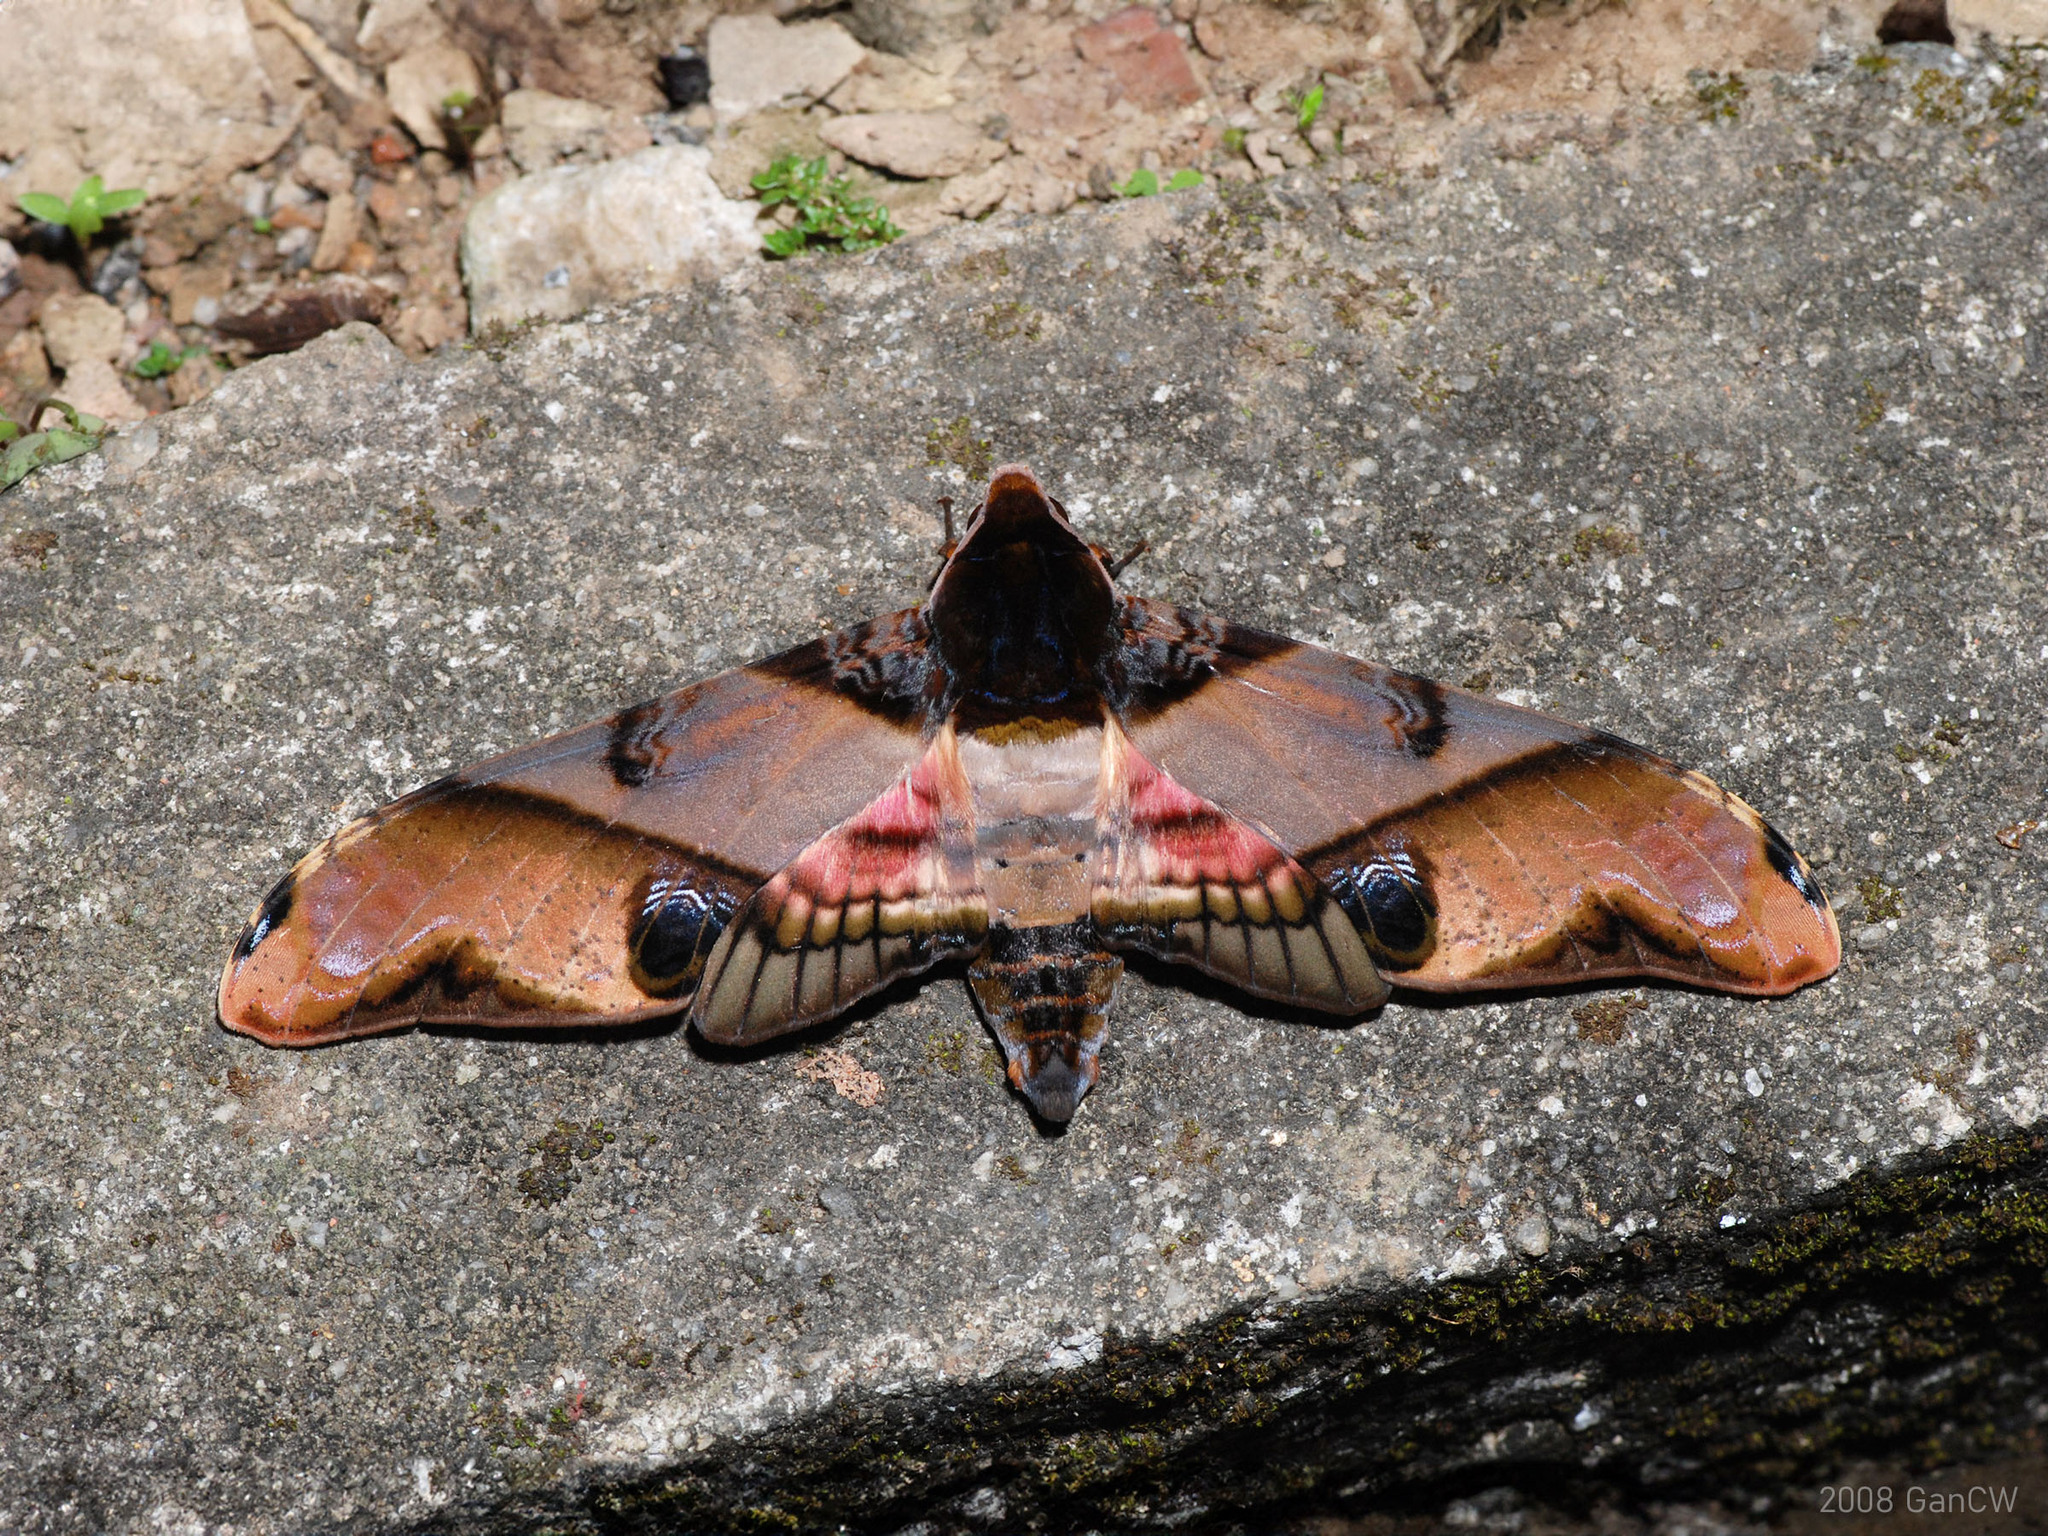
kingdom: Animalia
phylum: Arthropoda
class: Insecta
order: Lepidoptera
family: Sphingidae
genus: Amplypterus
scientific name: Amplypterus panopus
